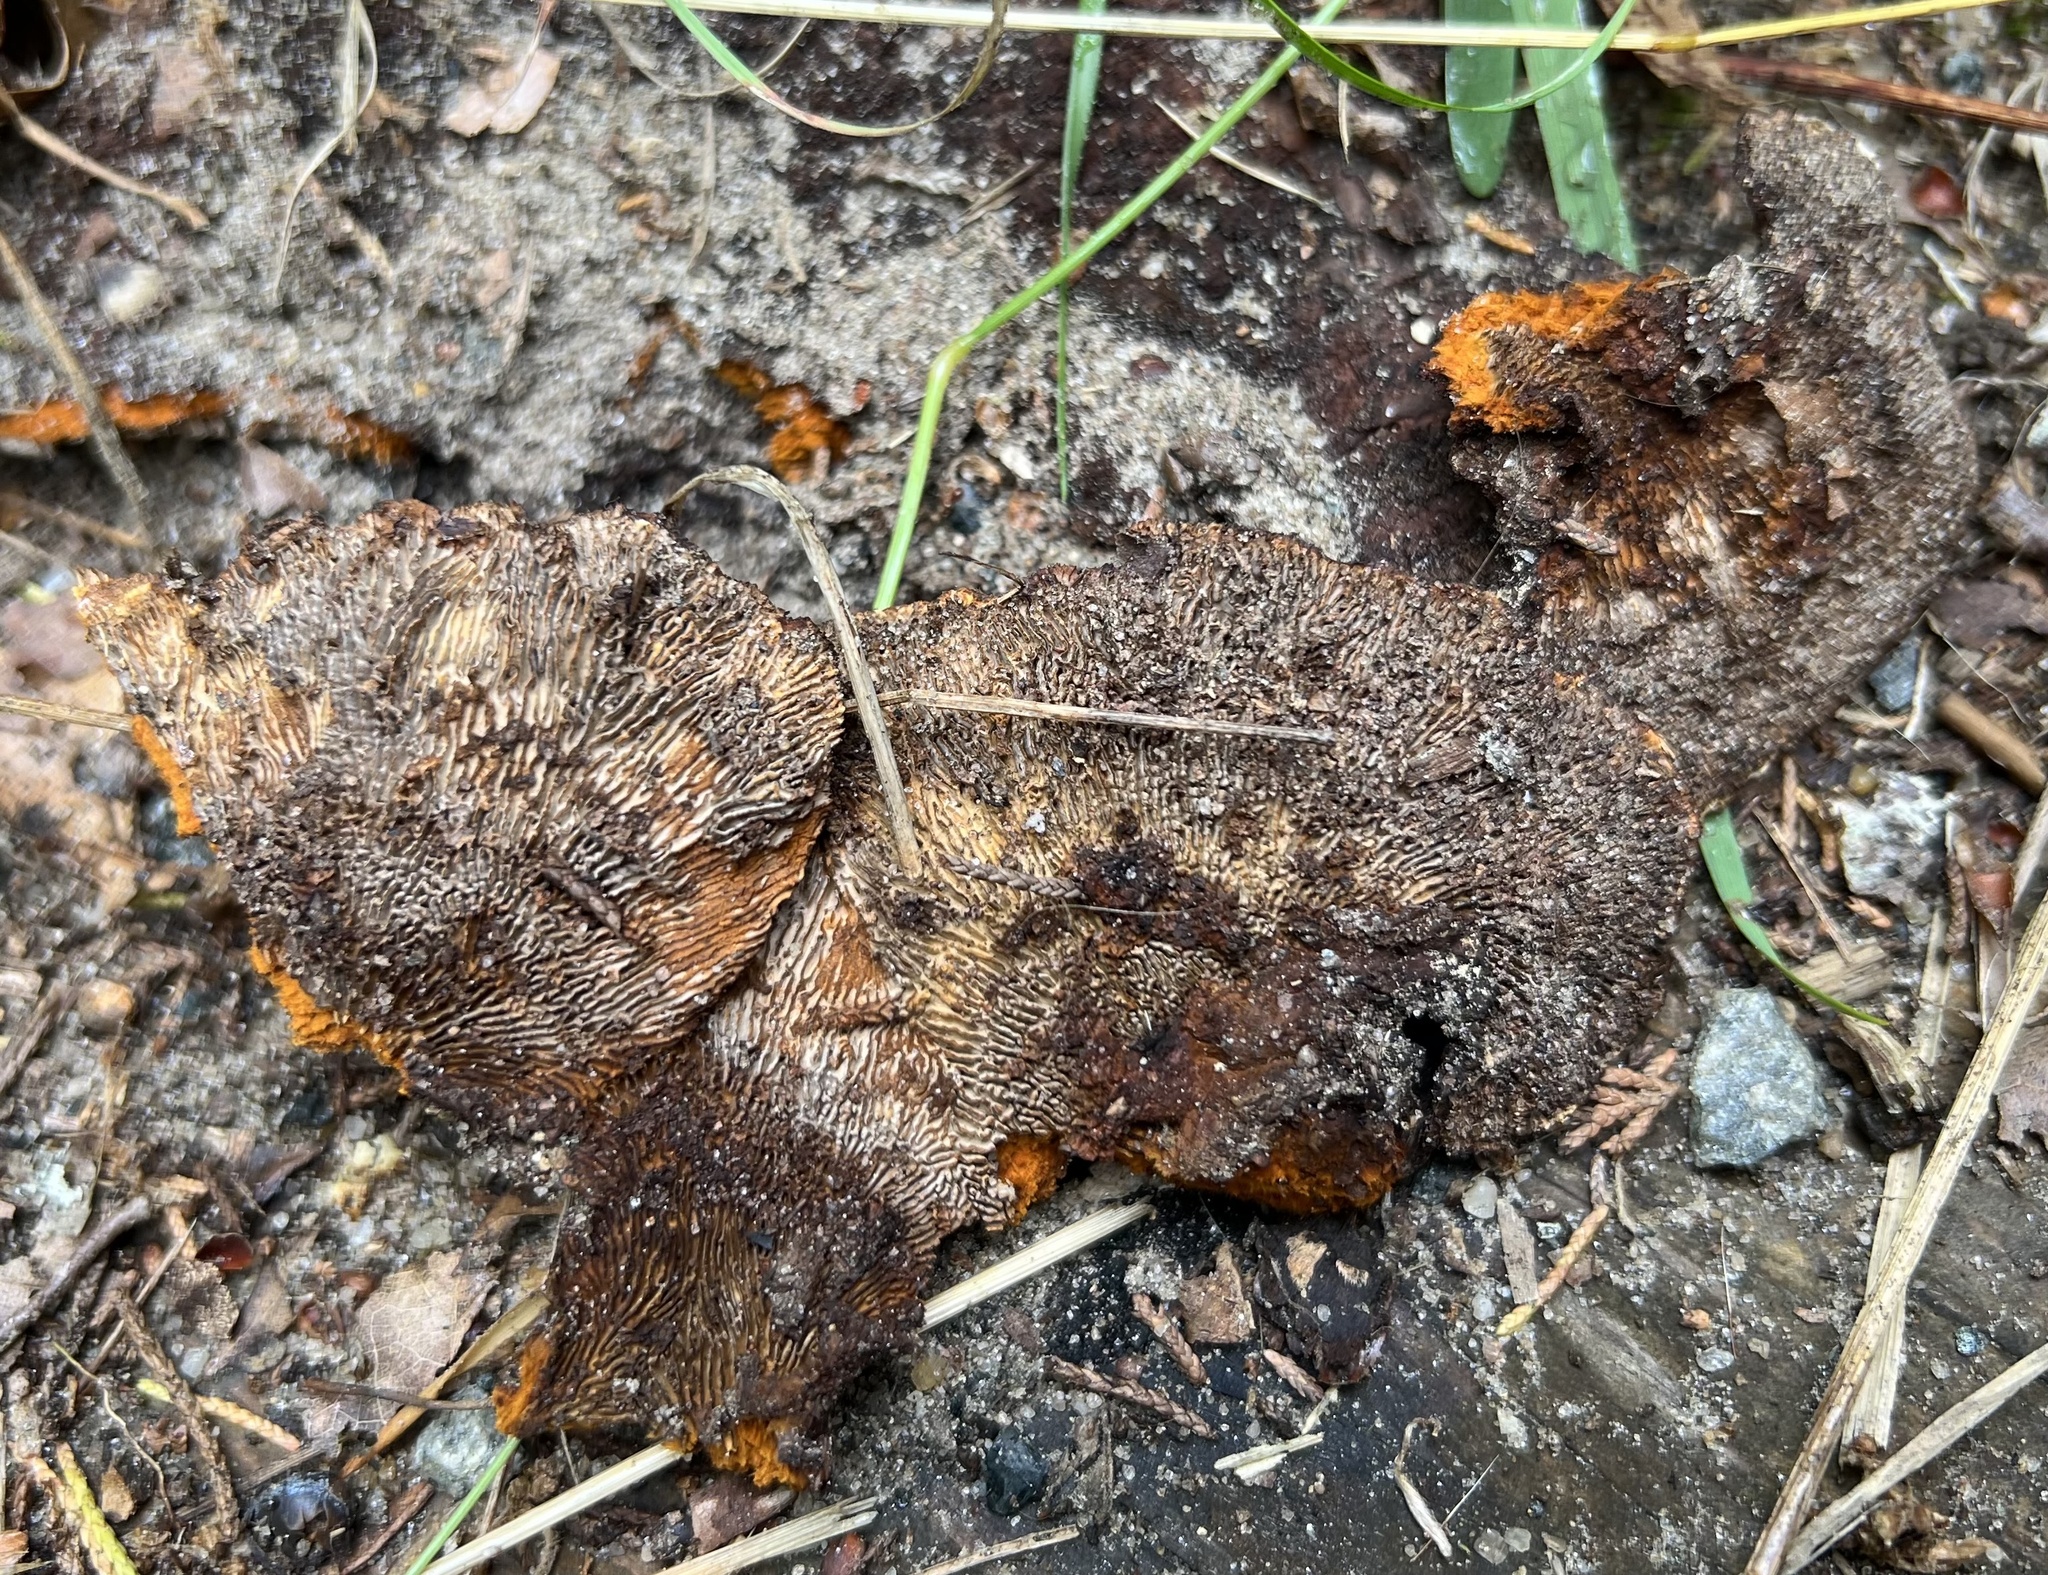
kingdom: Fungi
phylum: Basidiomycota
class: Agaricomycetes
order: Gloeophyllales
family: Gloeophyllaceae
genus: Gloeophyllum
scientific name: Gloeophyllum sepiarium
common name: Conifer mazegill
